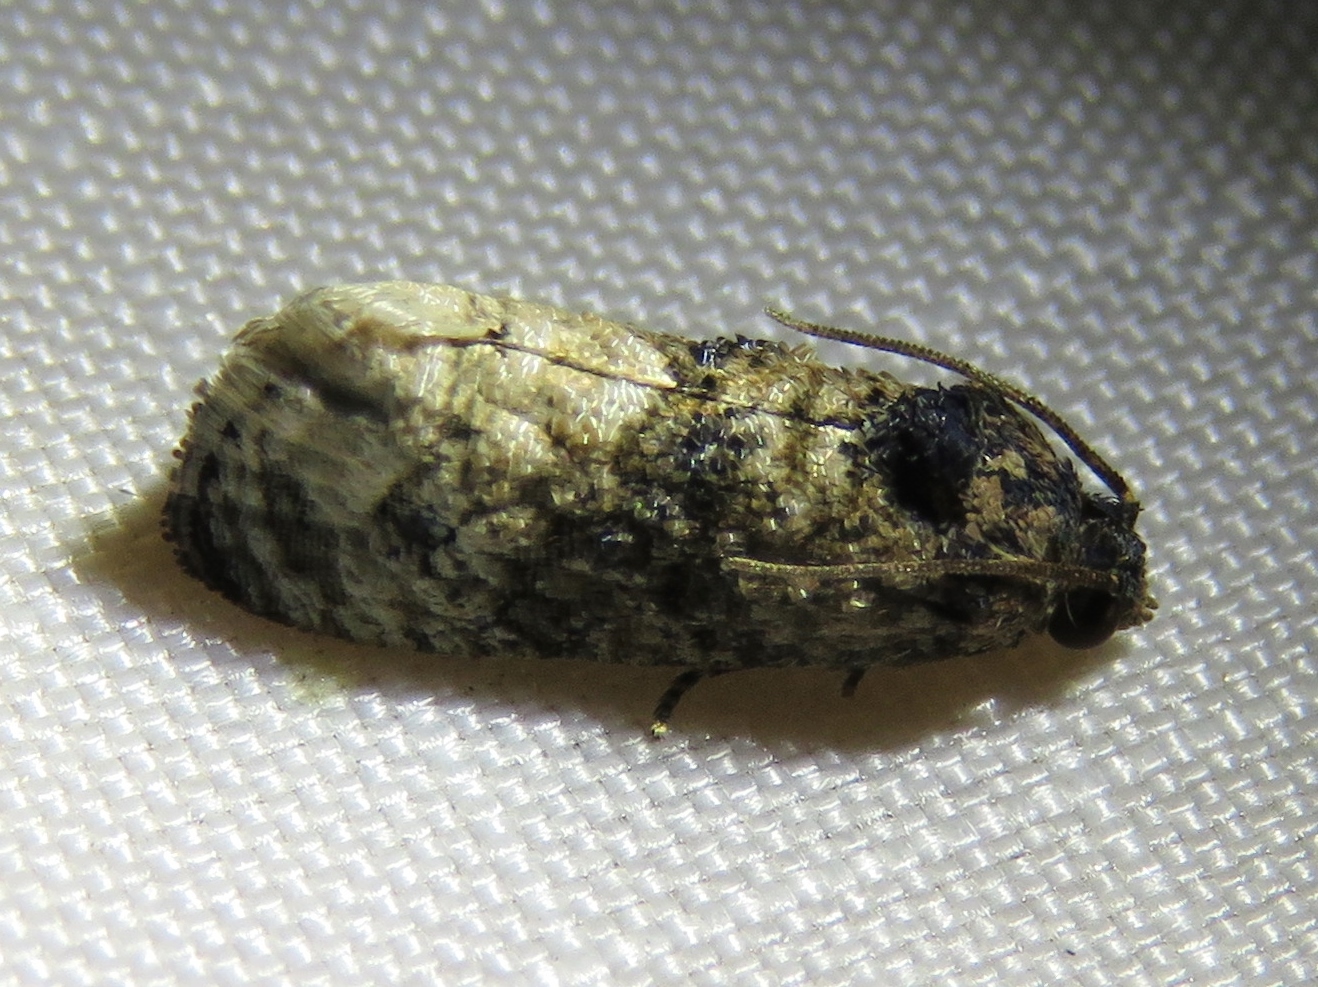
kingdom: Animalia
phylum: Arthropoda
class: Insecta
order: Lepidoptera
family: Tortricidae
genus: Ecdytolopha
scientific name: Ecdytolopha mana
